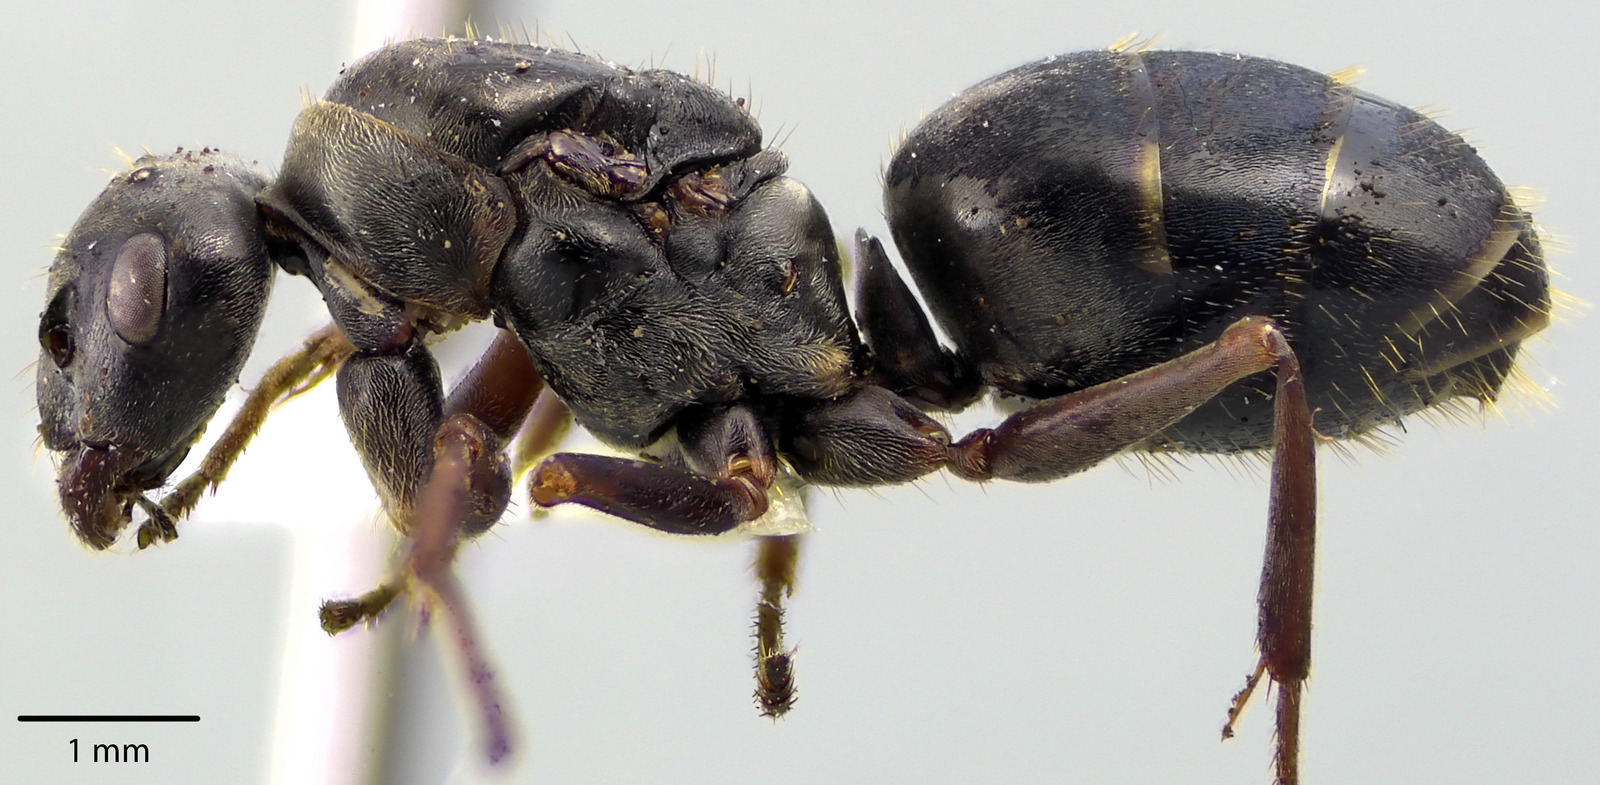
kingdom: Animalia
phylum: Arthropoda
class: Insecta
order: Hymenoptera
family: Formicidae
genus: Formica
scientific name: Formica podzolica
